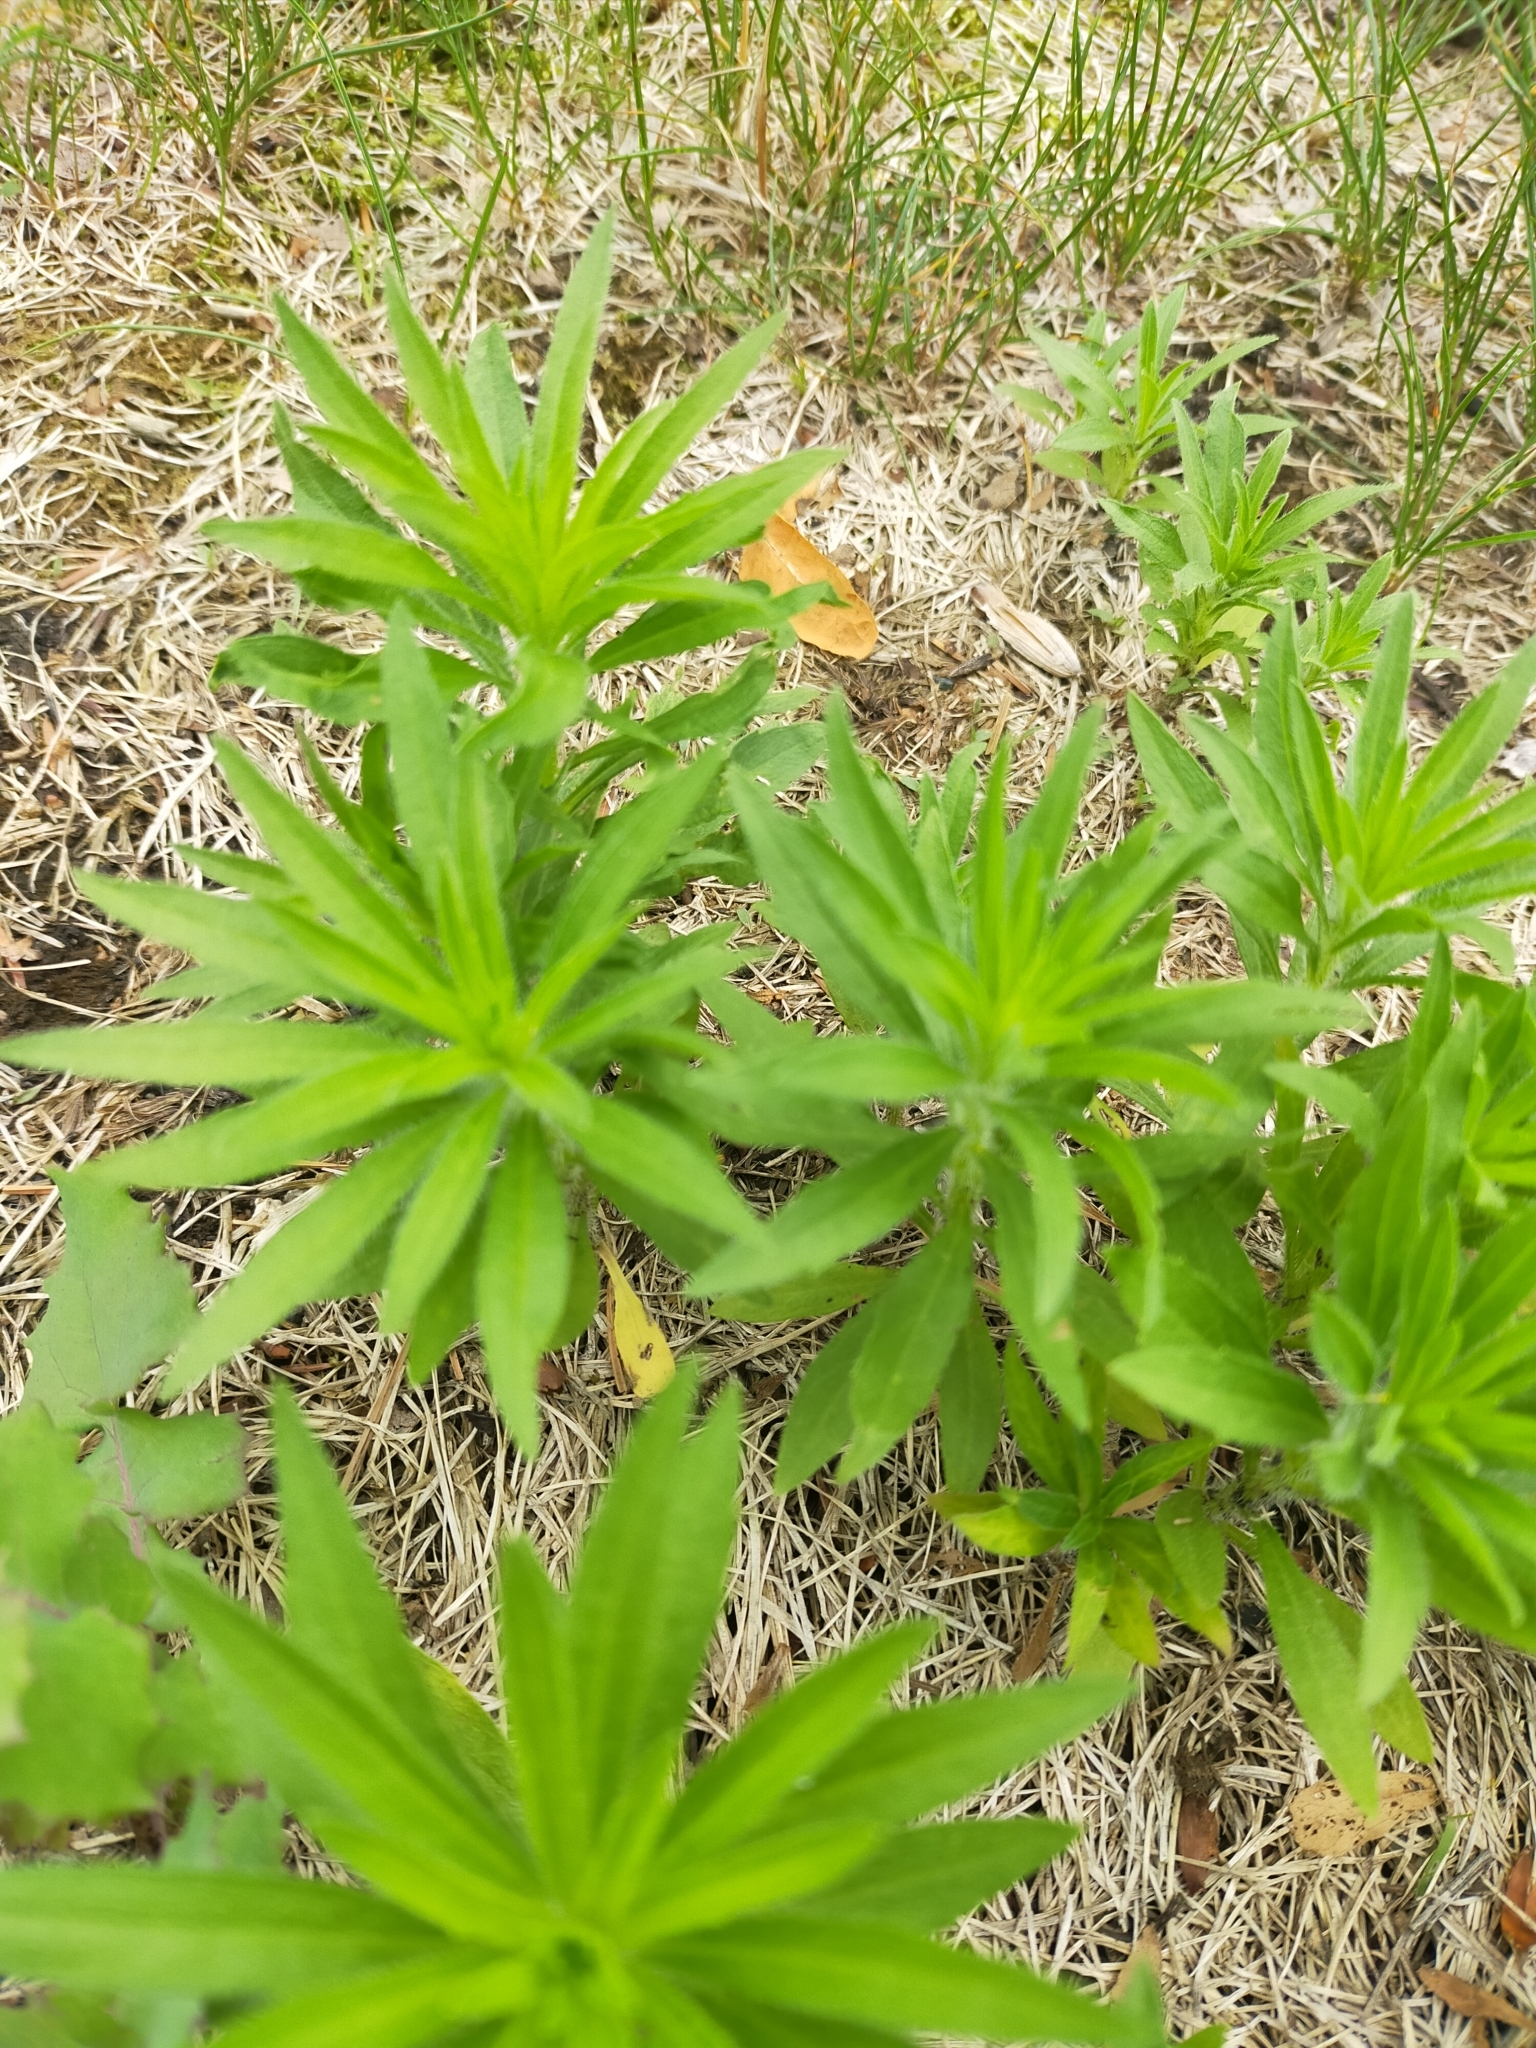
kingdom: Plantae
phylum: Tracheophyta
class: Magnoliopsida
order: Asterales
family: Asteraceae
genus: Erigeron
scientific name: Erigeron canadensis
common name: Canadian fleabane
